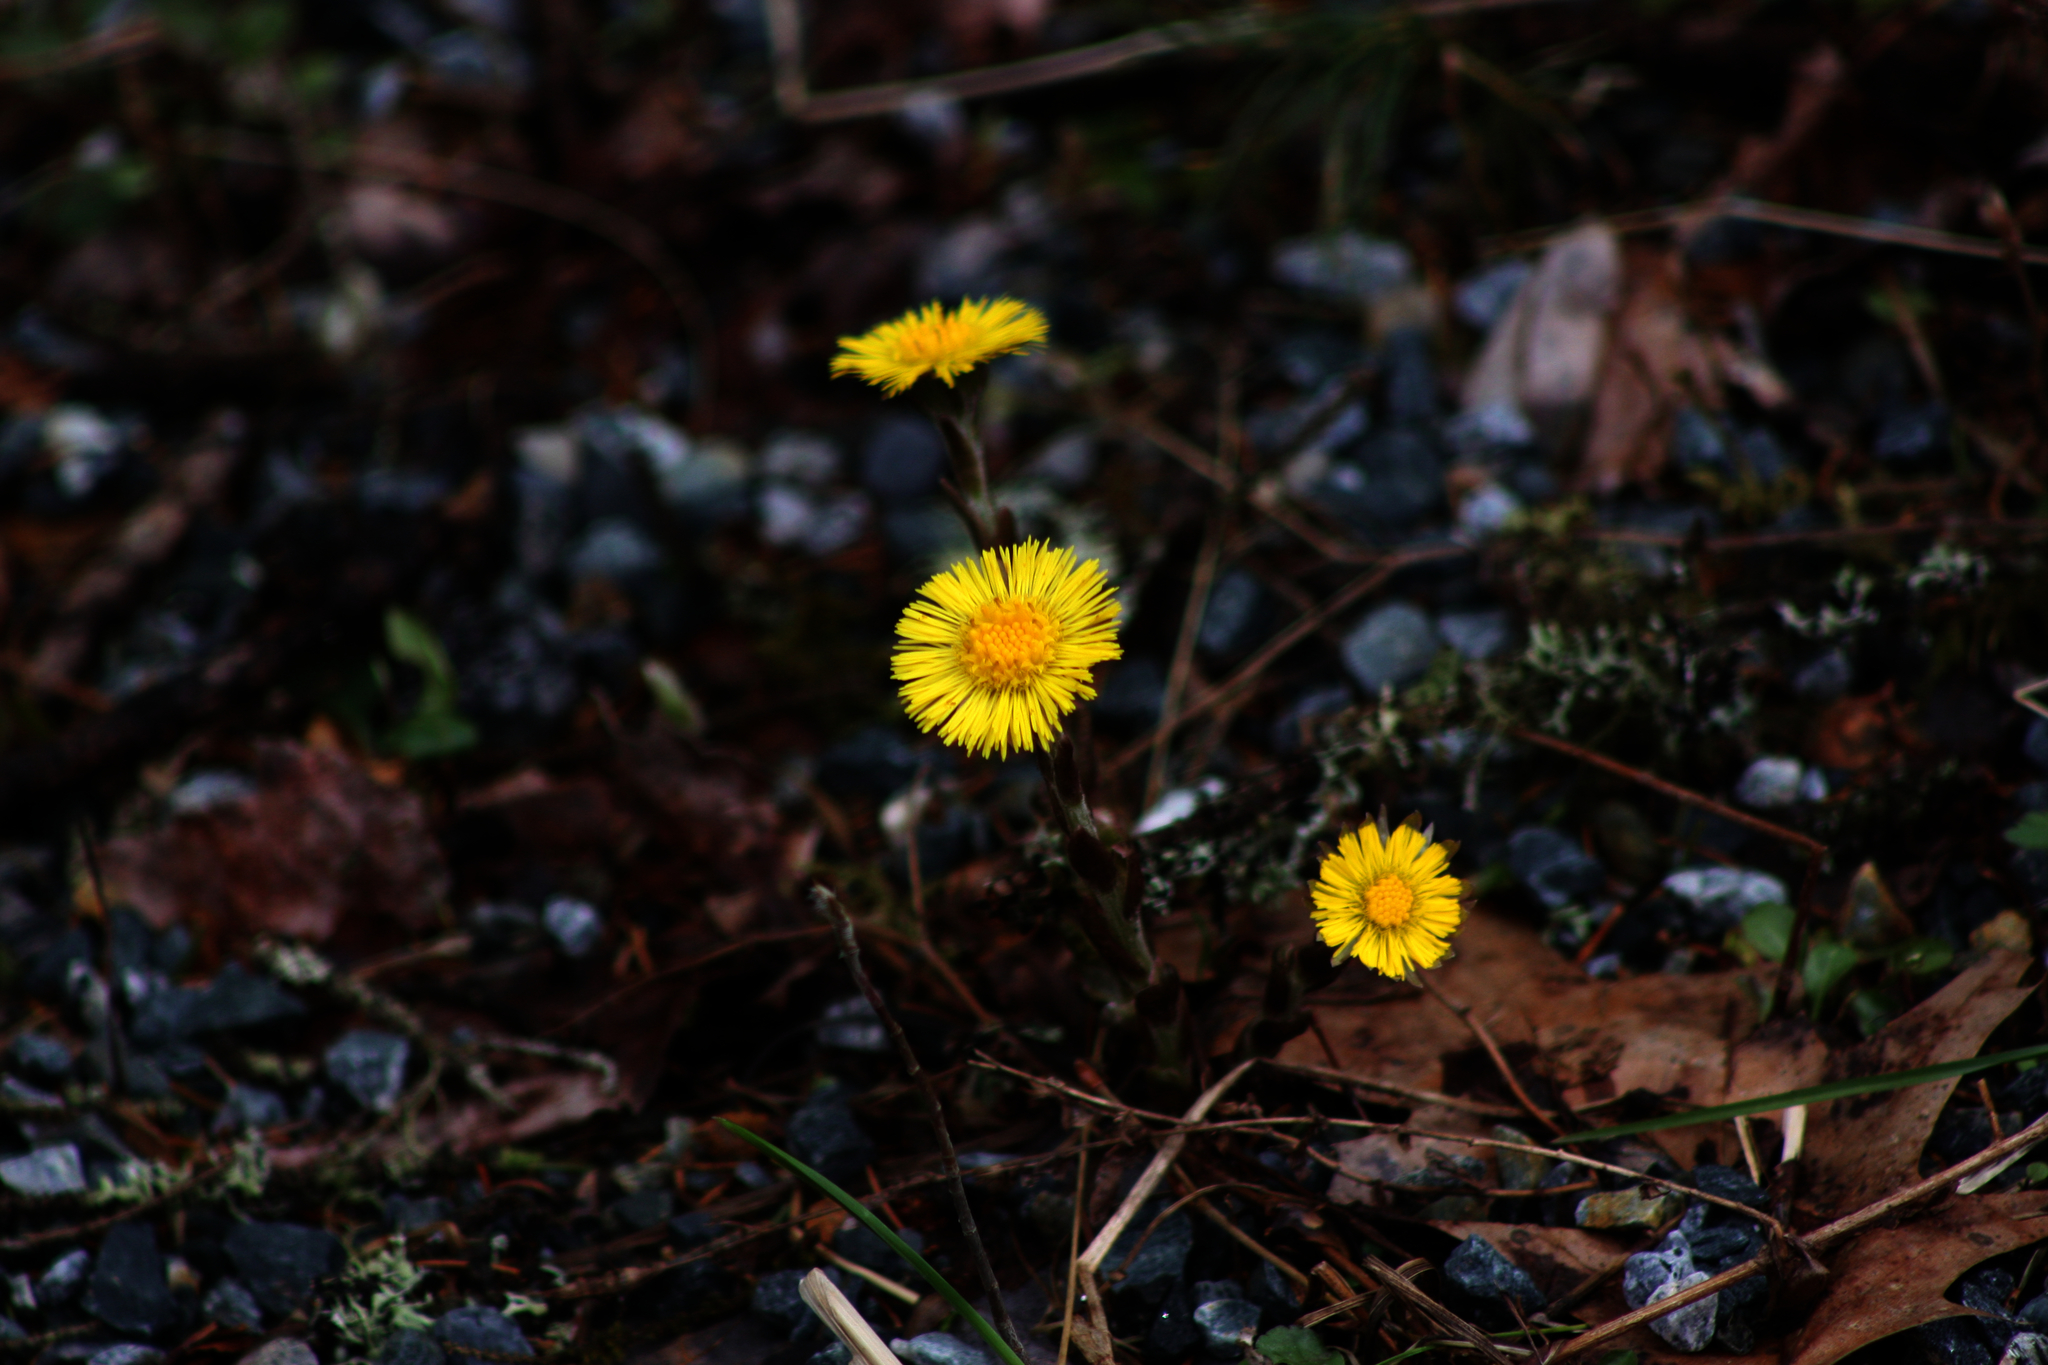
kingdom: Plantae
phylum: Tracheophyta
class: Magnoliopsida
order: Asterales
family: Asteraceae
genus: Tussilago
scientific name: Tussilago farfara
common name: Coltsfoot
